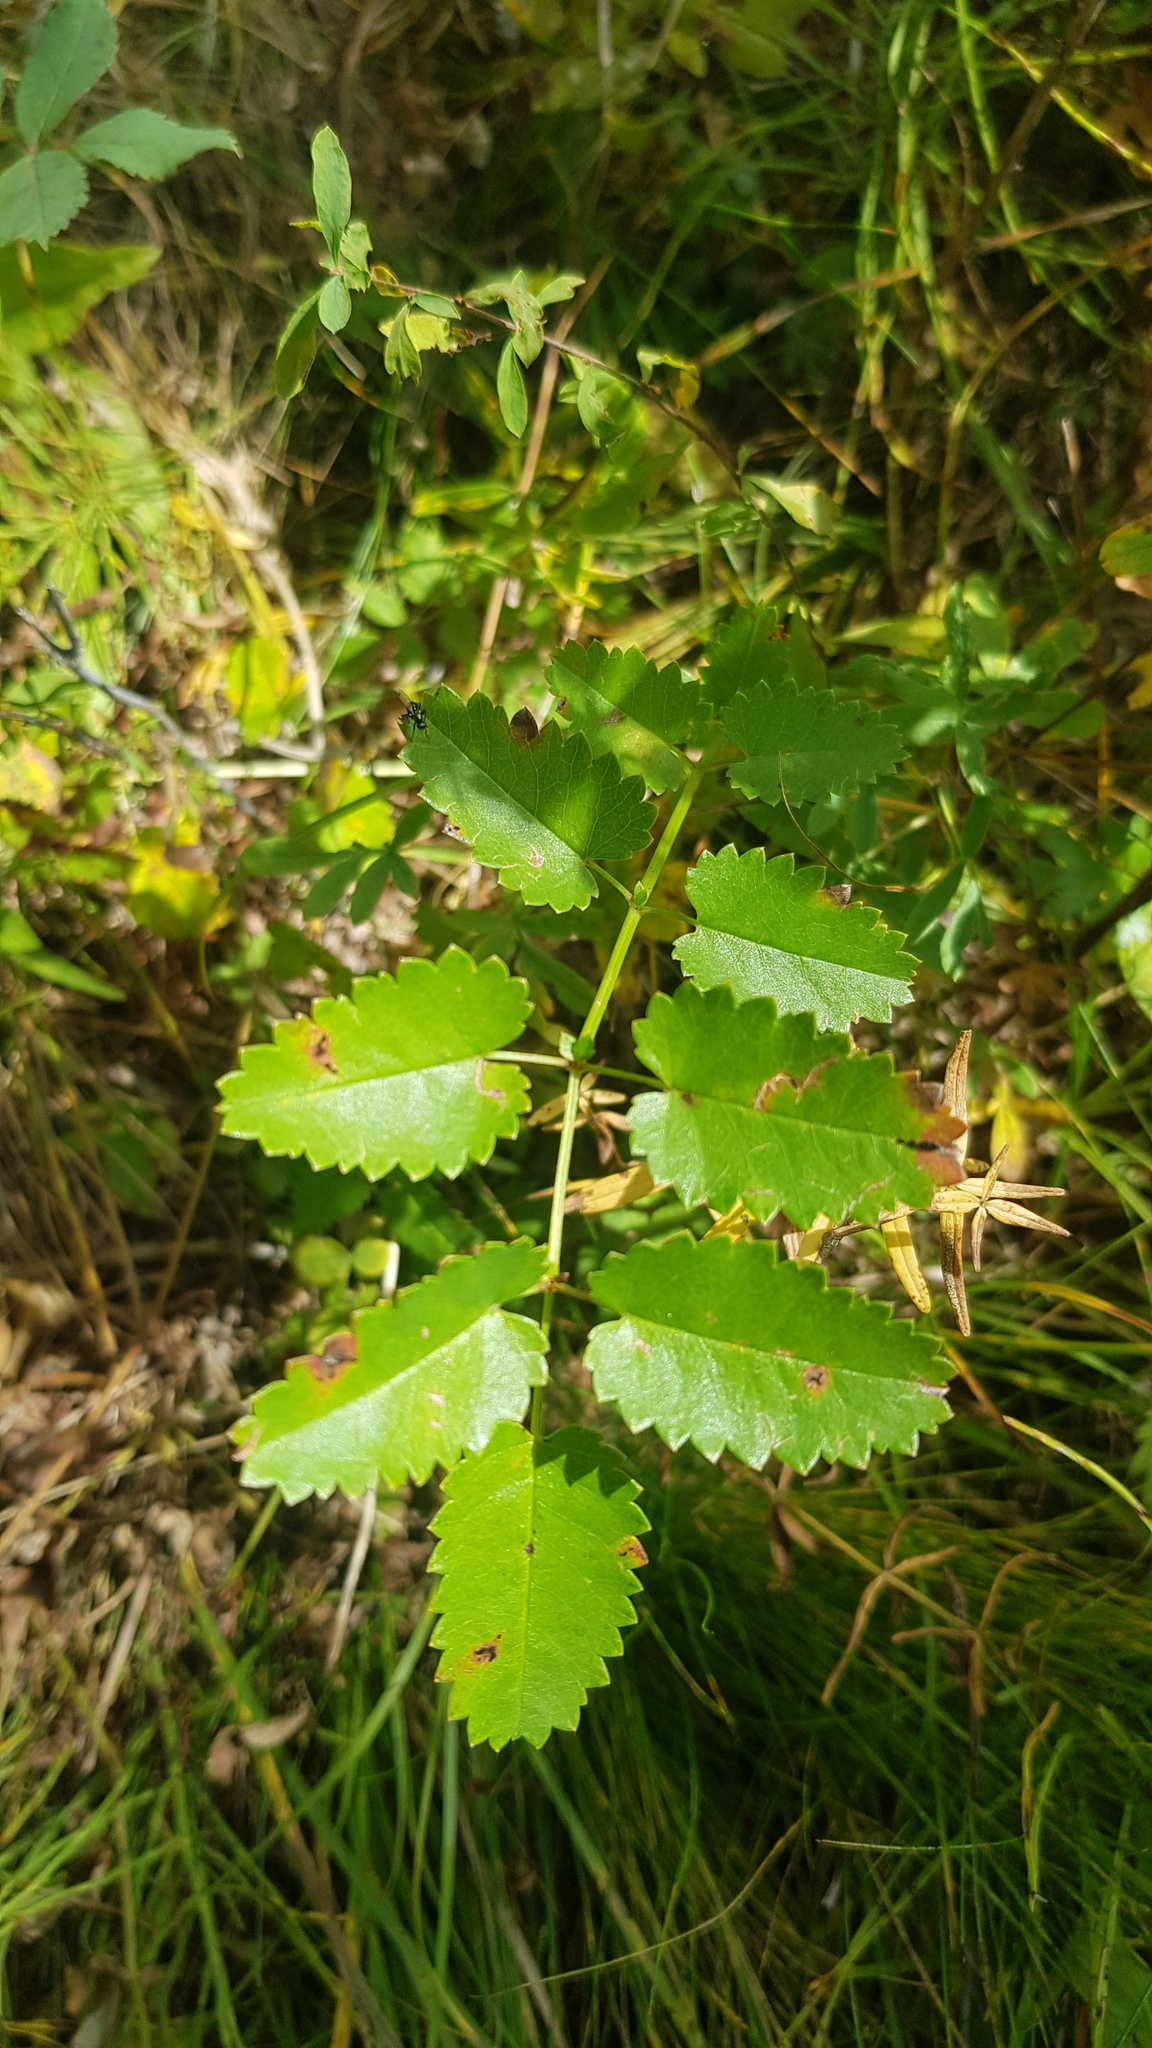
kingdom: Plantae
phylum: Tracheophyta
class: Magnoliopsida
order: Rosales
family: Rosaceae
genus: Sanguisorba
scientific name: Sanguisorba officinalis
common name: Great burnet
